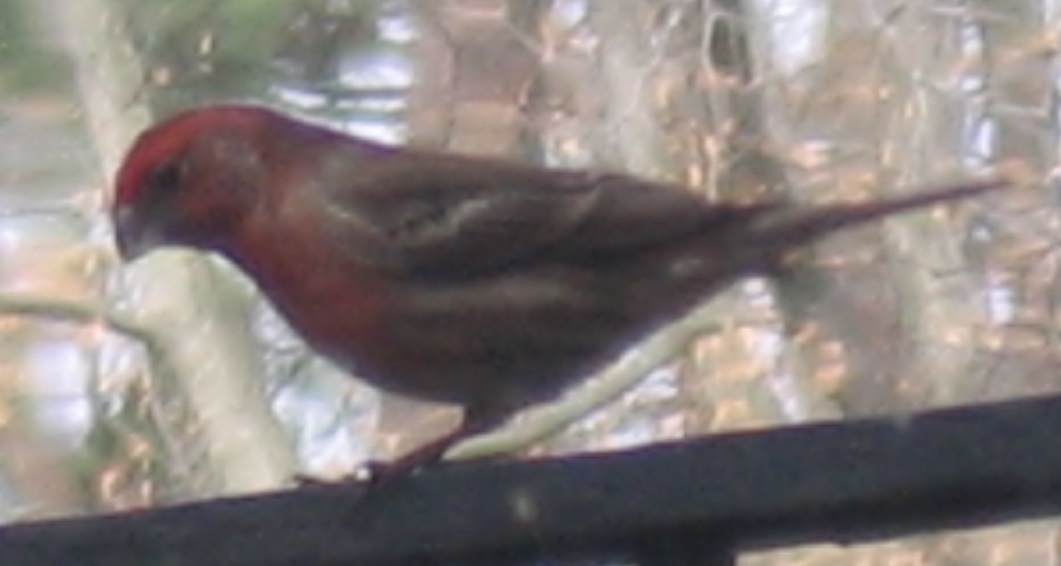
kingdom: Animalia
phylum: Chordata
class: Aves
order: Passeriformes
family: Fringillidae
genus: Haemorhous
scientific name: Haemorhous mexicanus
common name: House finch
